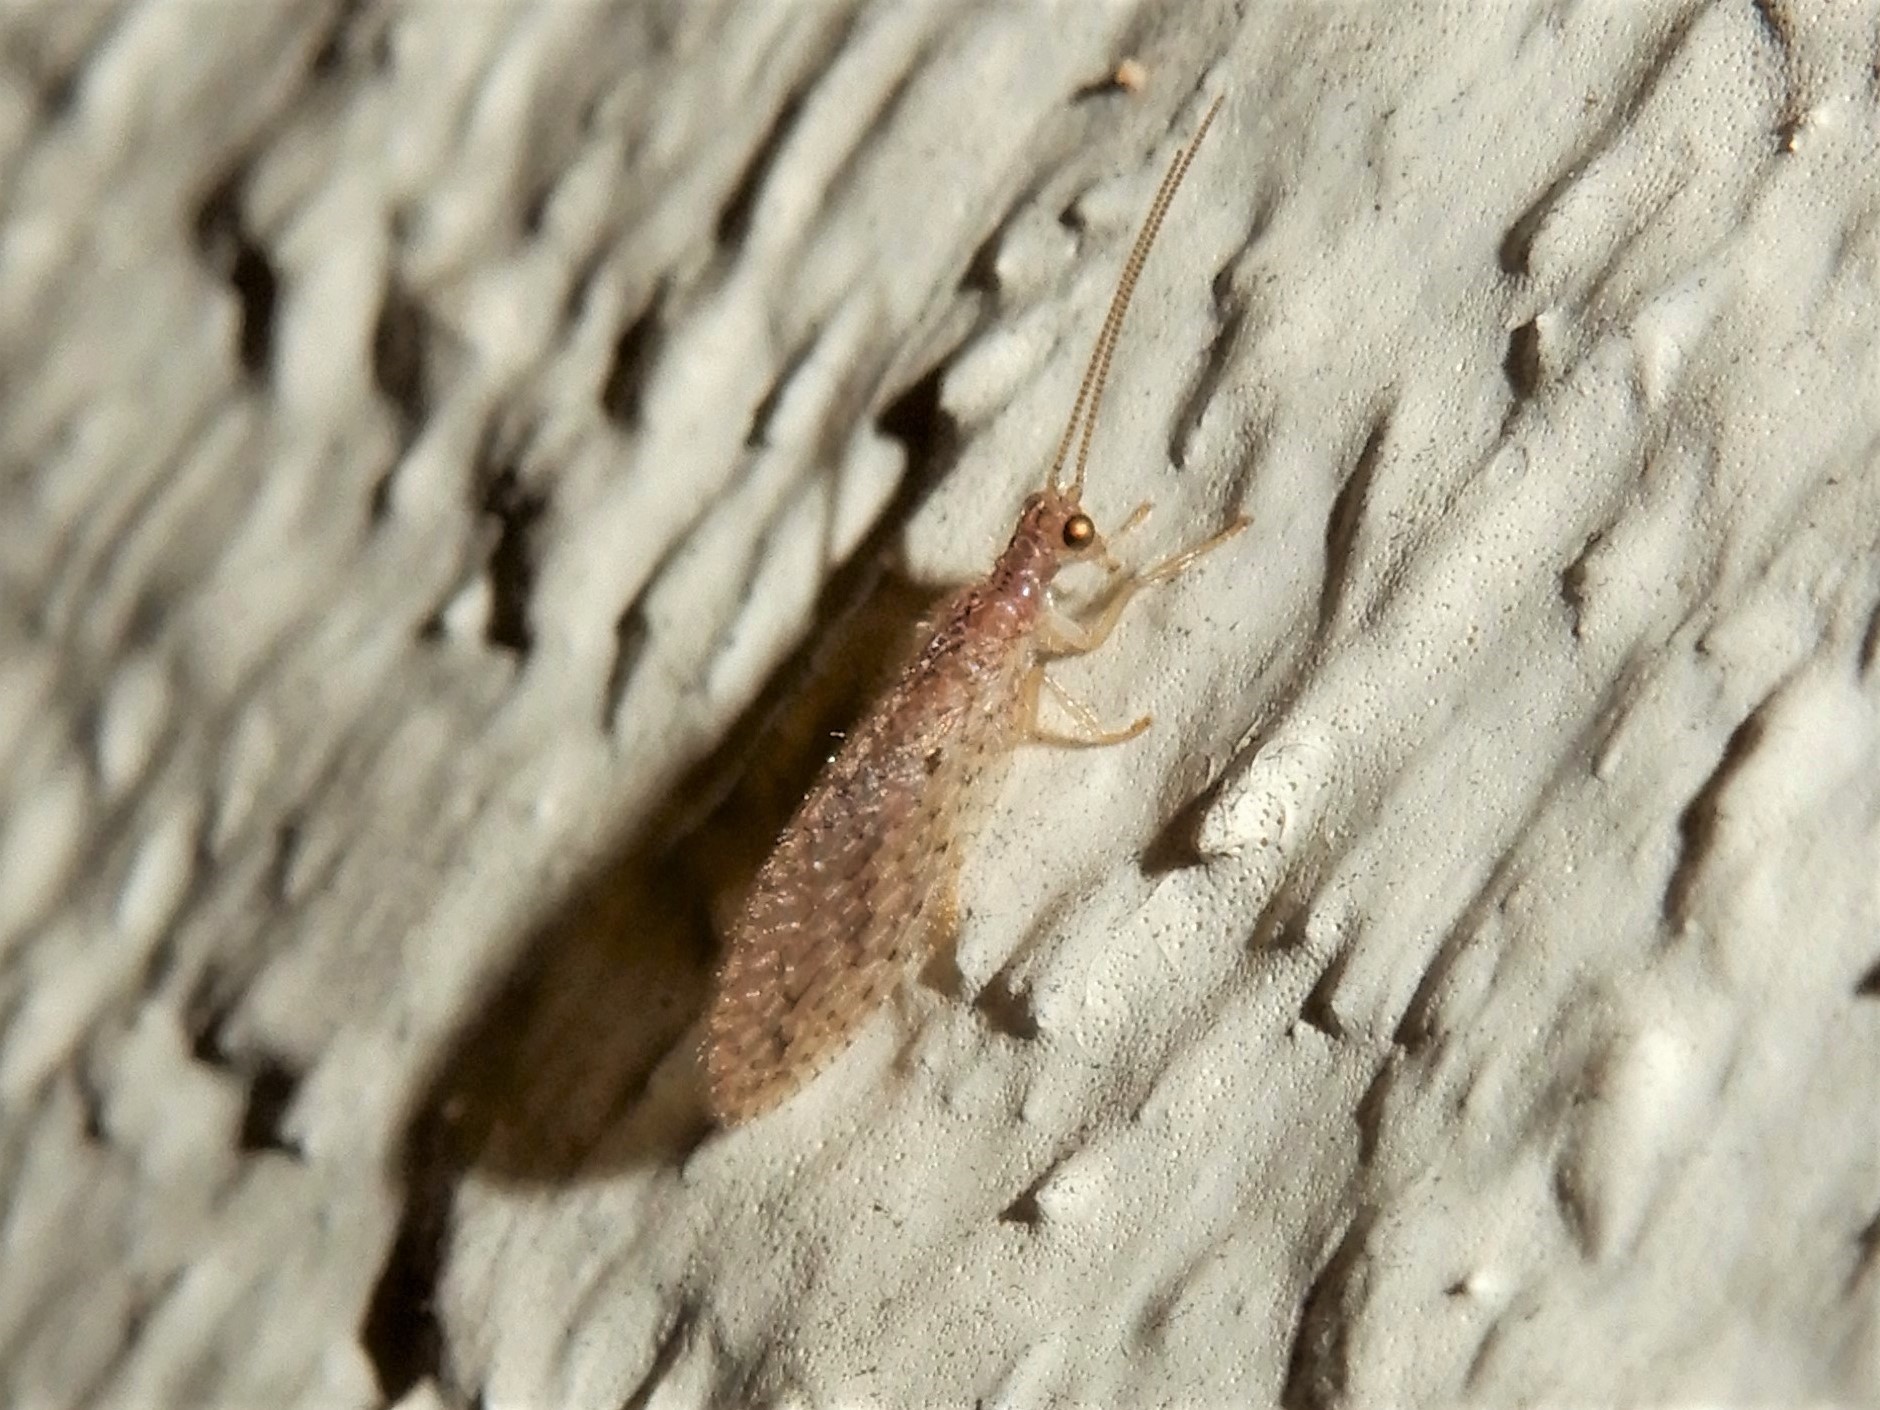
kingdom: Animalia
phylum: Arthropoda
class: Insecta
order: Neuroptera
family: Hemerobiidae
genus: Micromus
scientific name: Micromus tasmaniae
